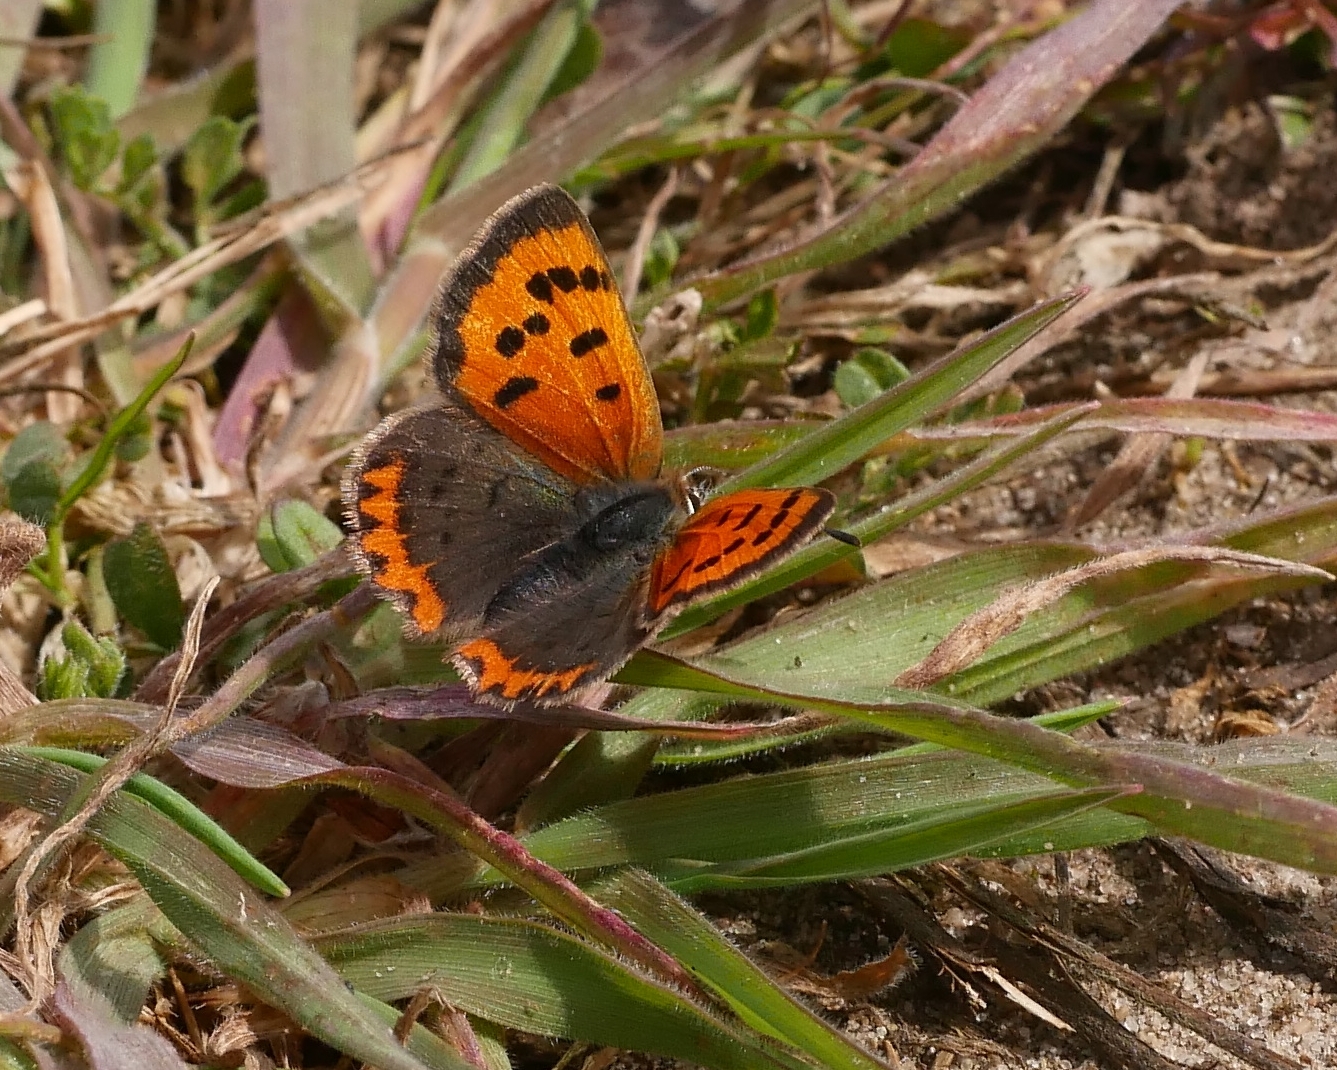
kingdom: Animalia
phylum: Arthropoda
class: Insecta
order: Lepidoptera
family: Lycaenidae
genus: Lycaena
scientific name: Lycaena phlaeas
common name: Small copper
